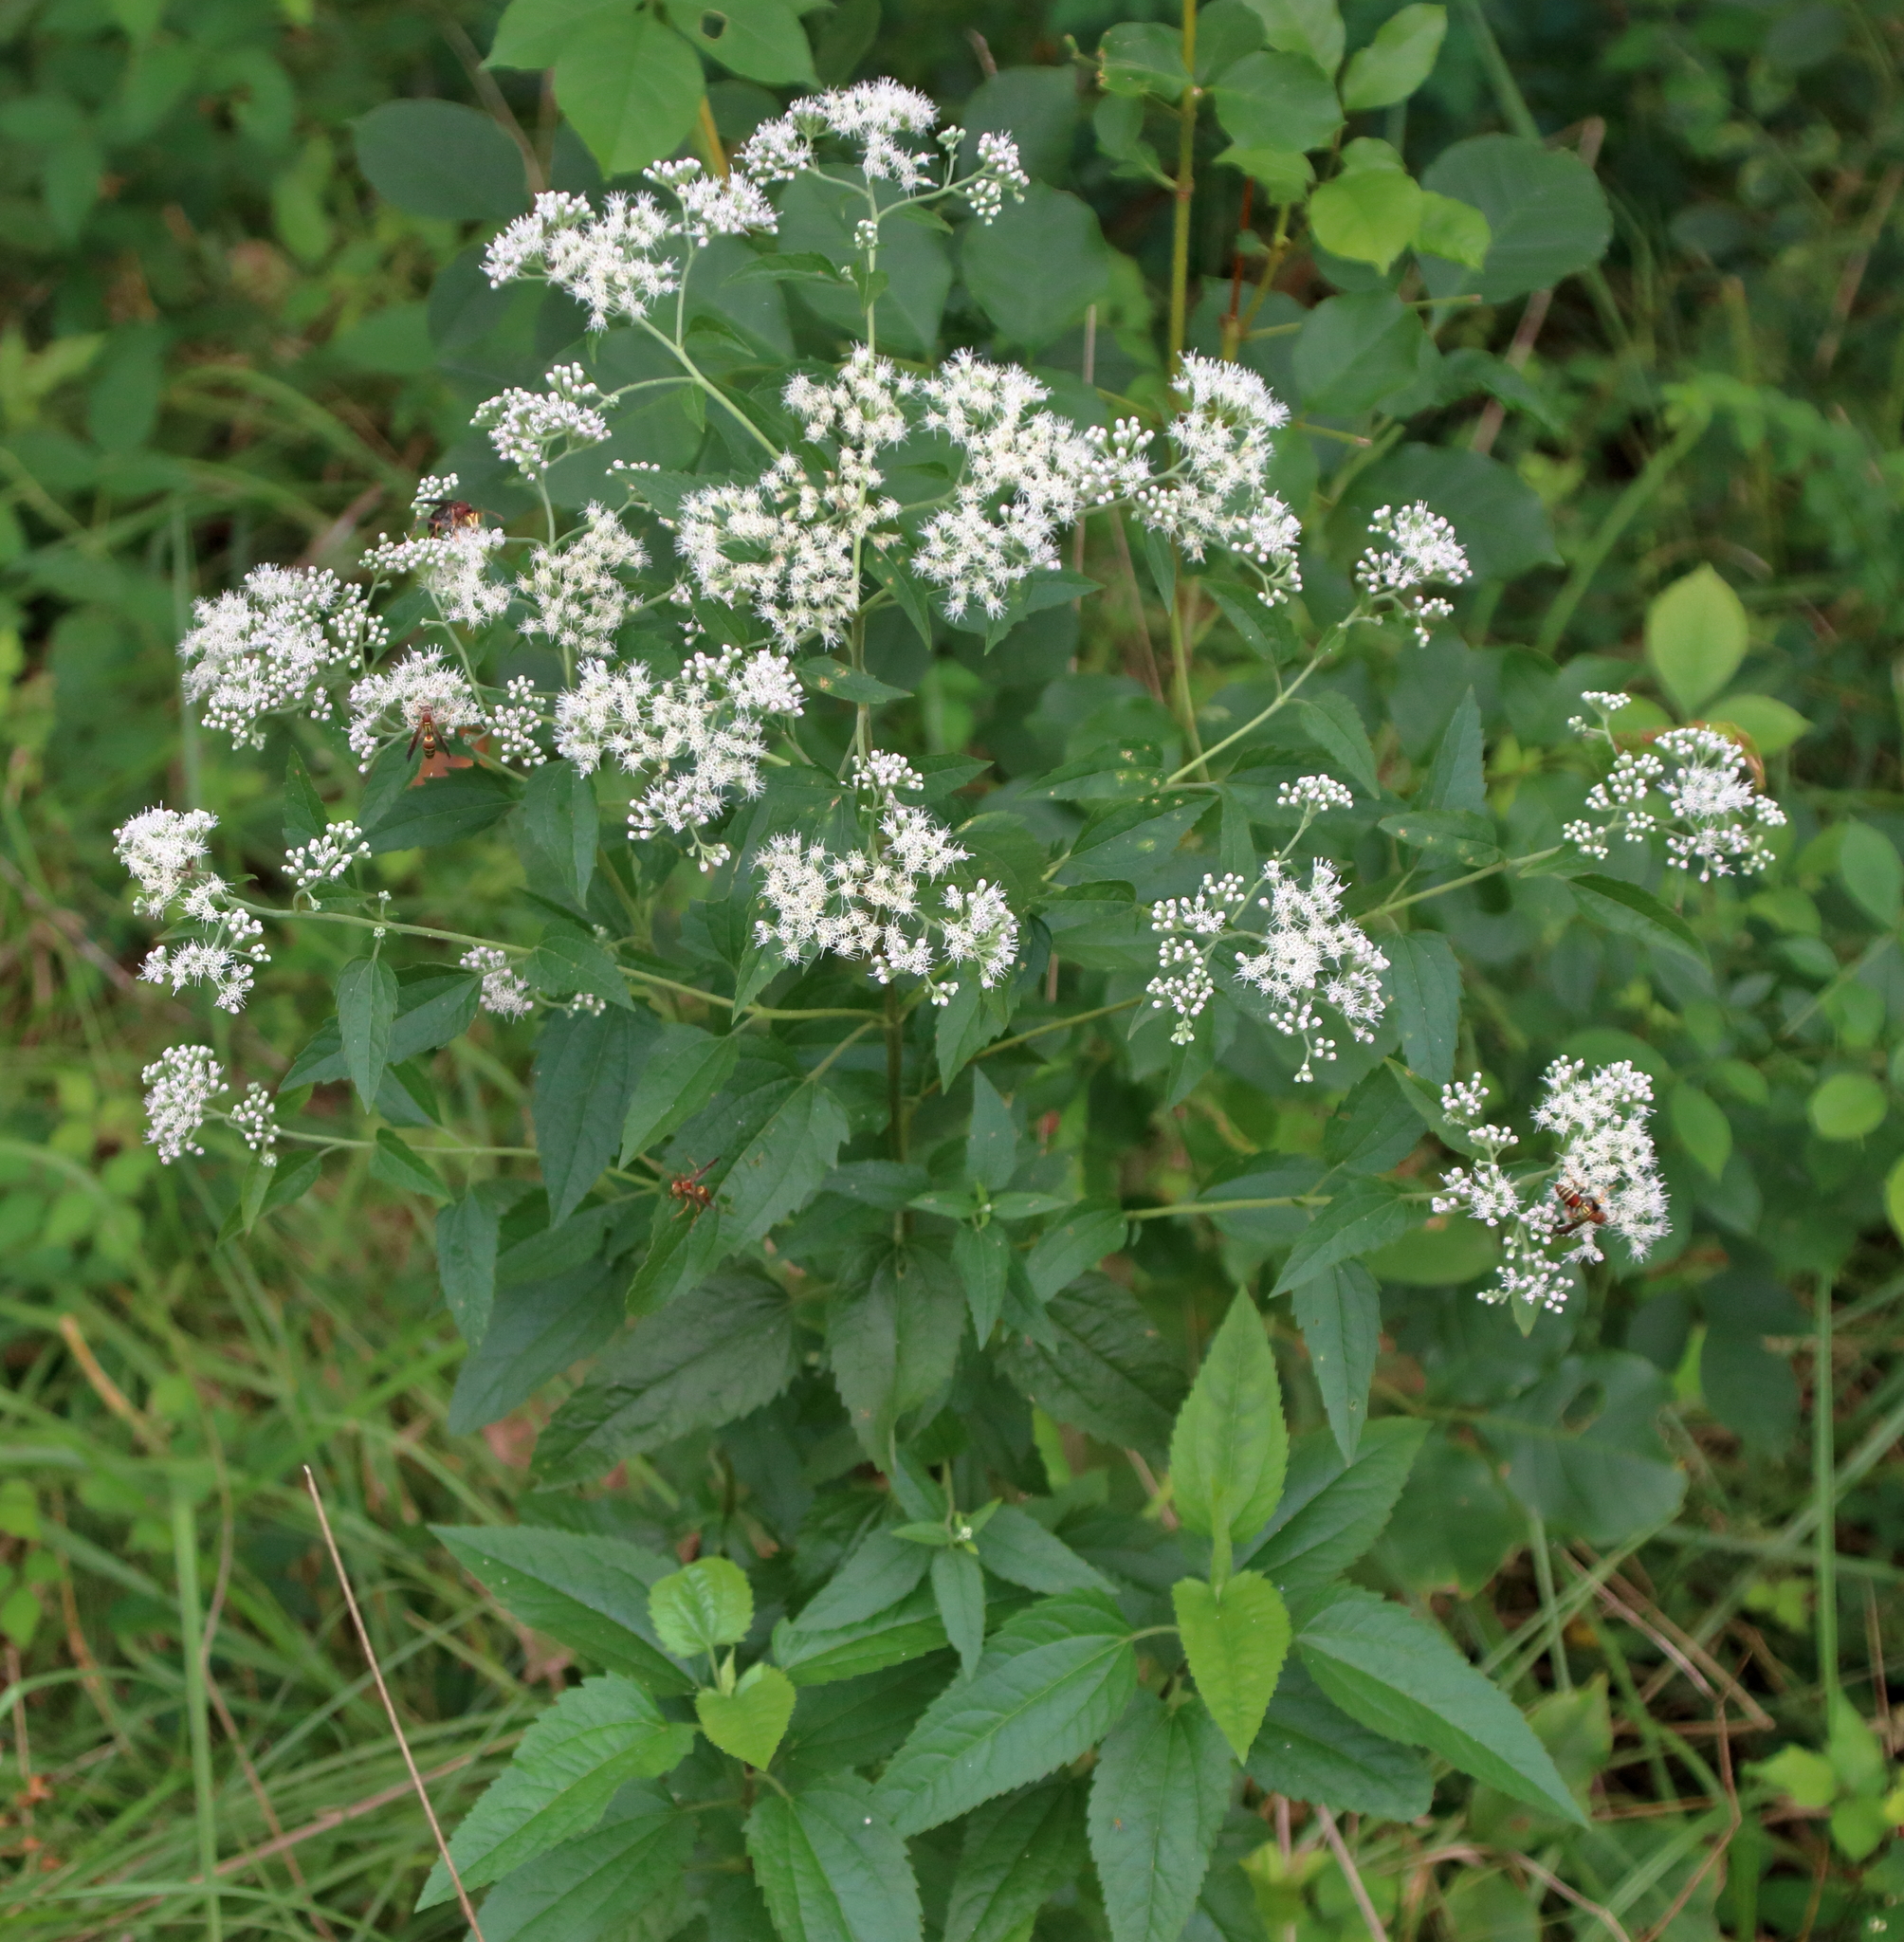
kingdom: Plantae
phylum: Tracheophyta
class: Magnoliopsida
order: Asterales
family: Asteraceae
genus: Eupatorium
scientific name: Eupatorium serotinum
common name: Late boneset
